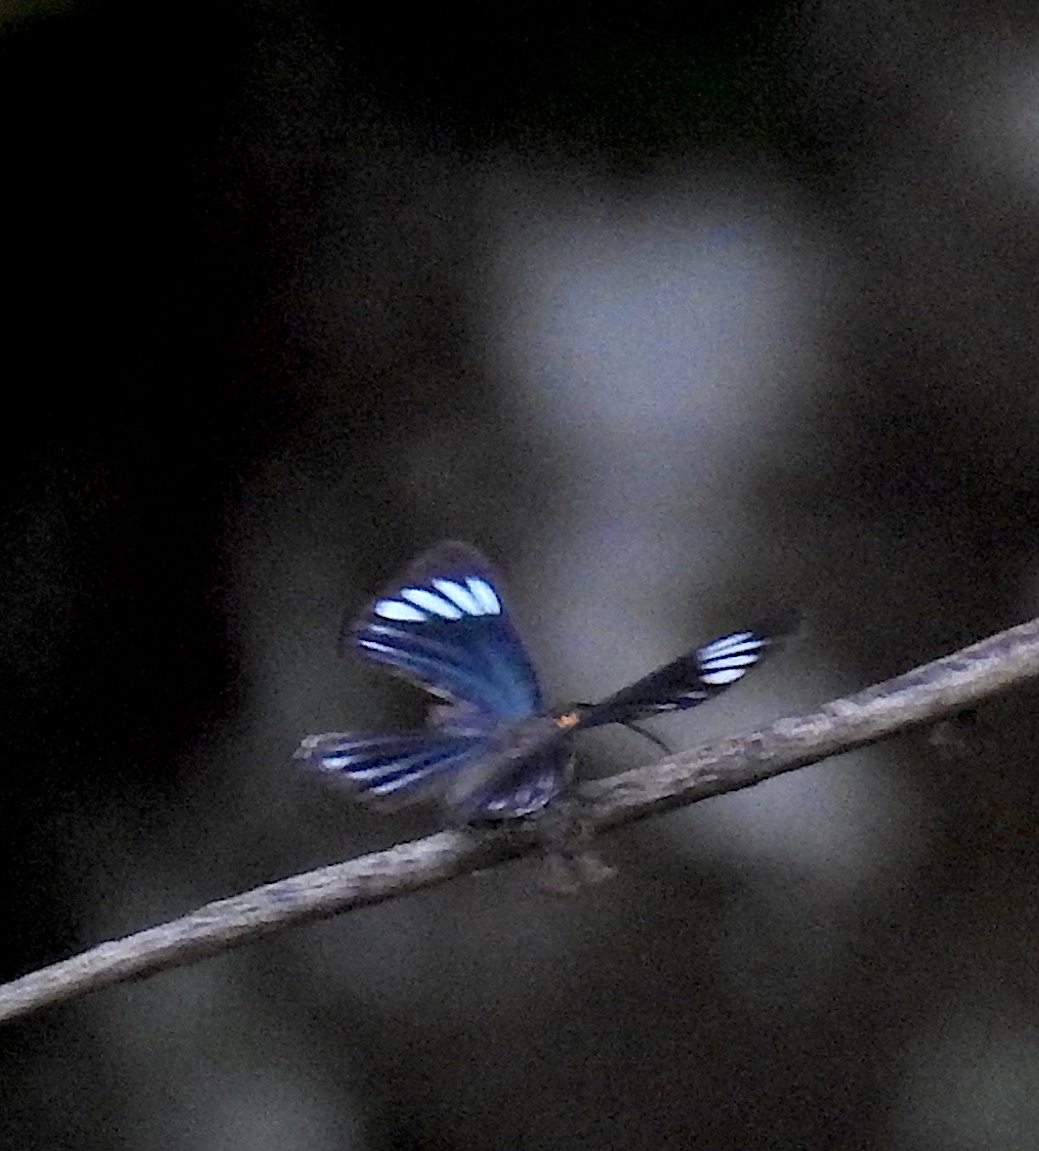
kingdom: Animalia
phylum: Arthropoda
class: Insecta
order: Lepidoptera
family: Riodinidae
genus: Pheles
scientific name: Pheles strigosa
